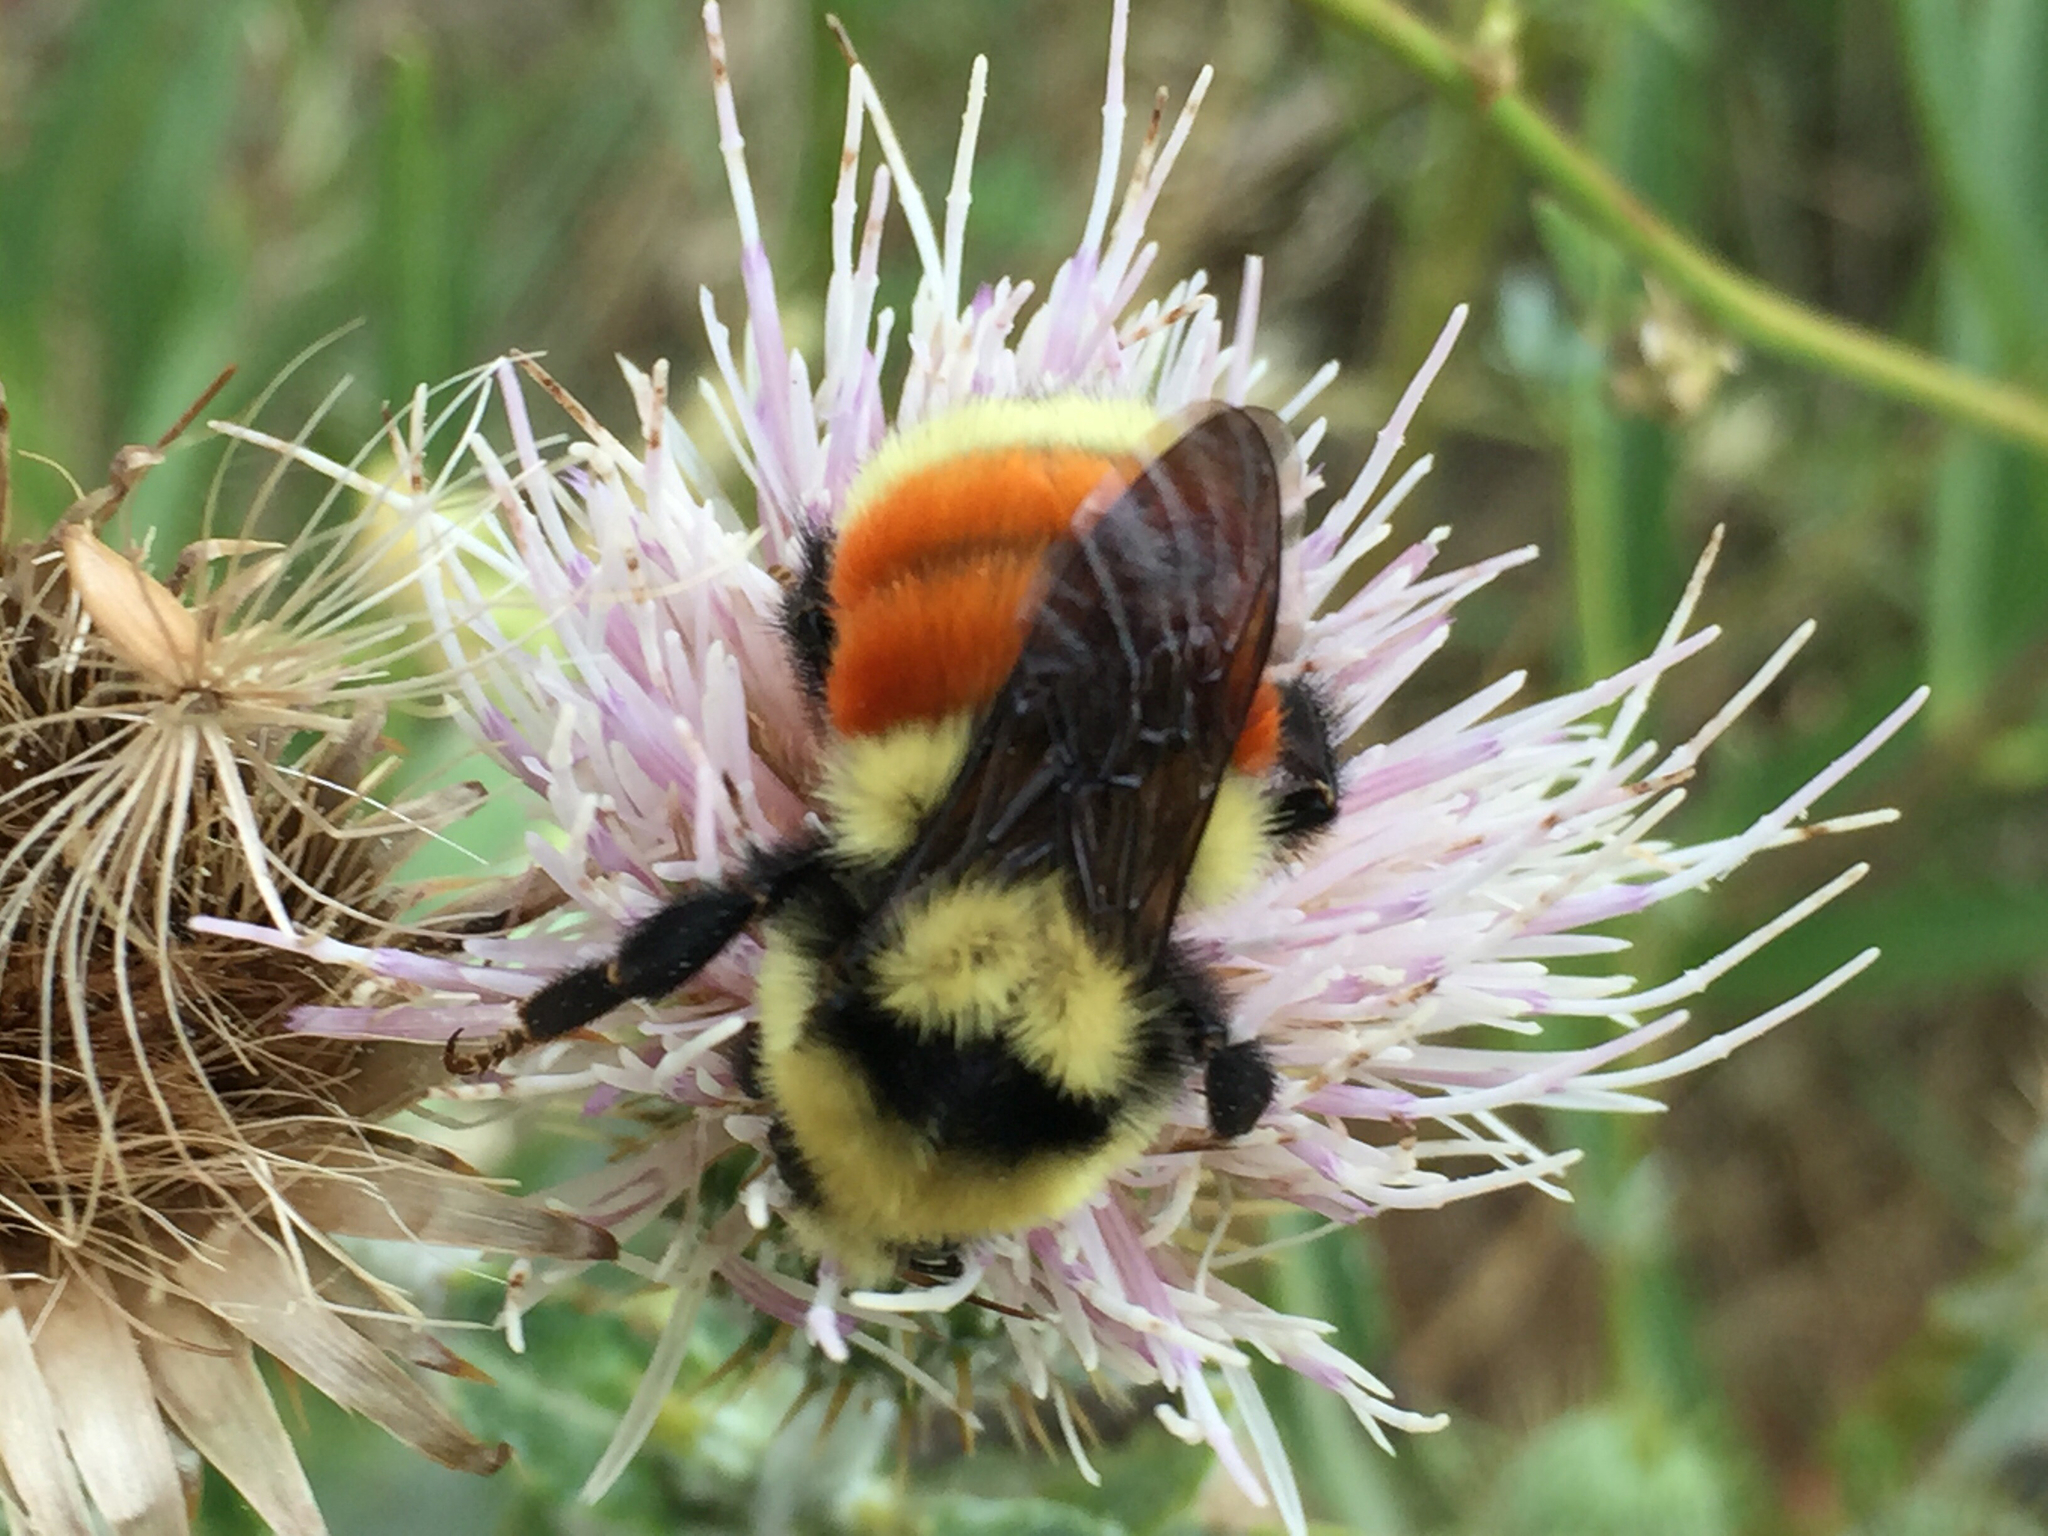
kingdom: Animalia
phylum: Arthropoda
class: Insecta
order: Hymenoptera
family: Apidae
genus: Bombus
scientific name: Bombus huntii
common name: Hunt bumble bee
